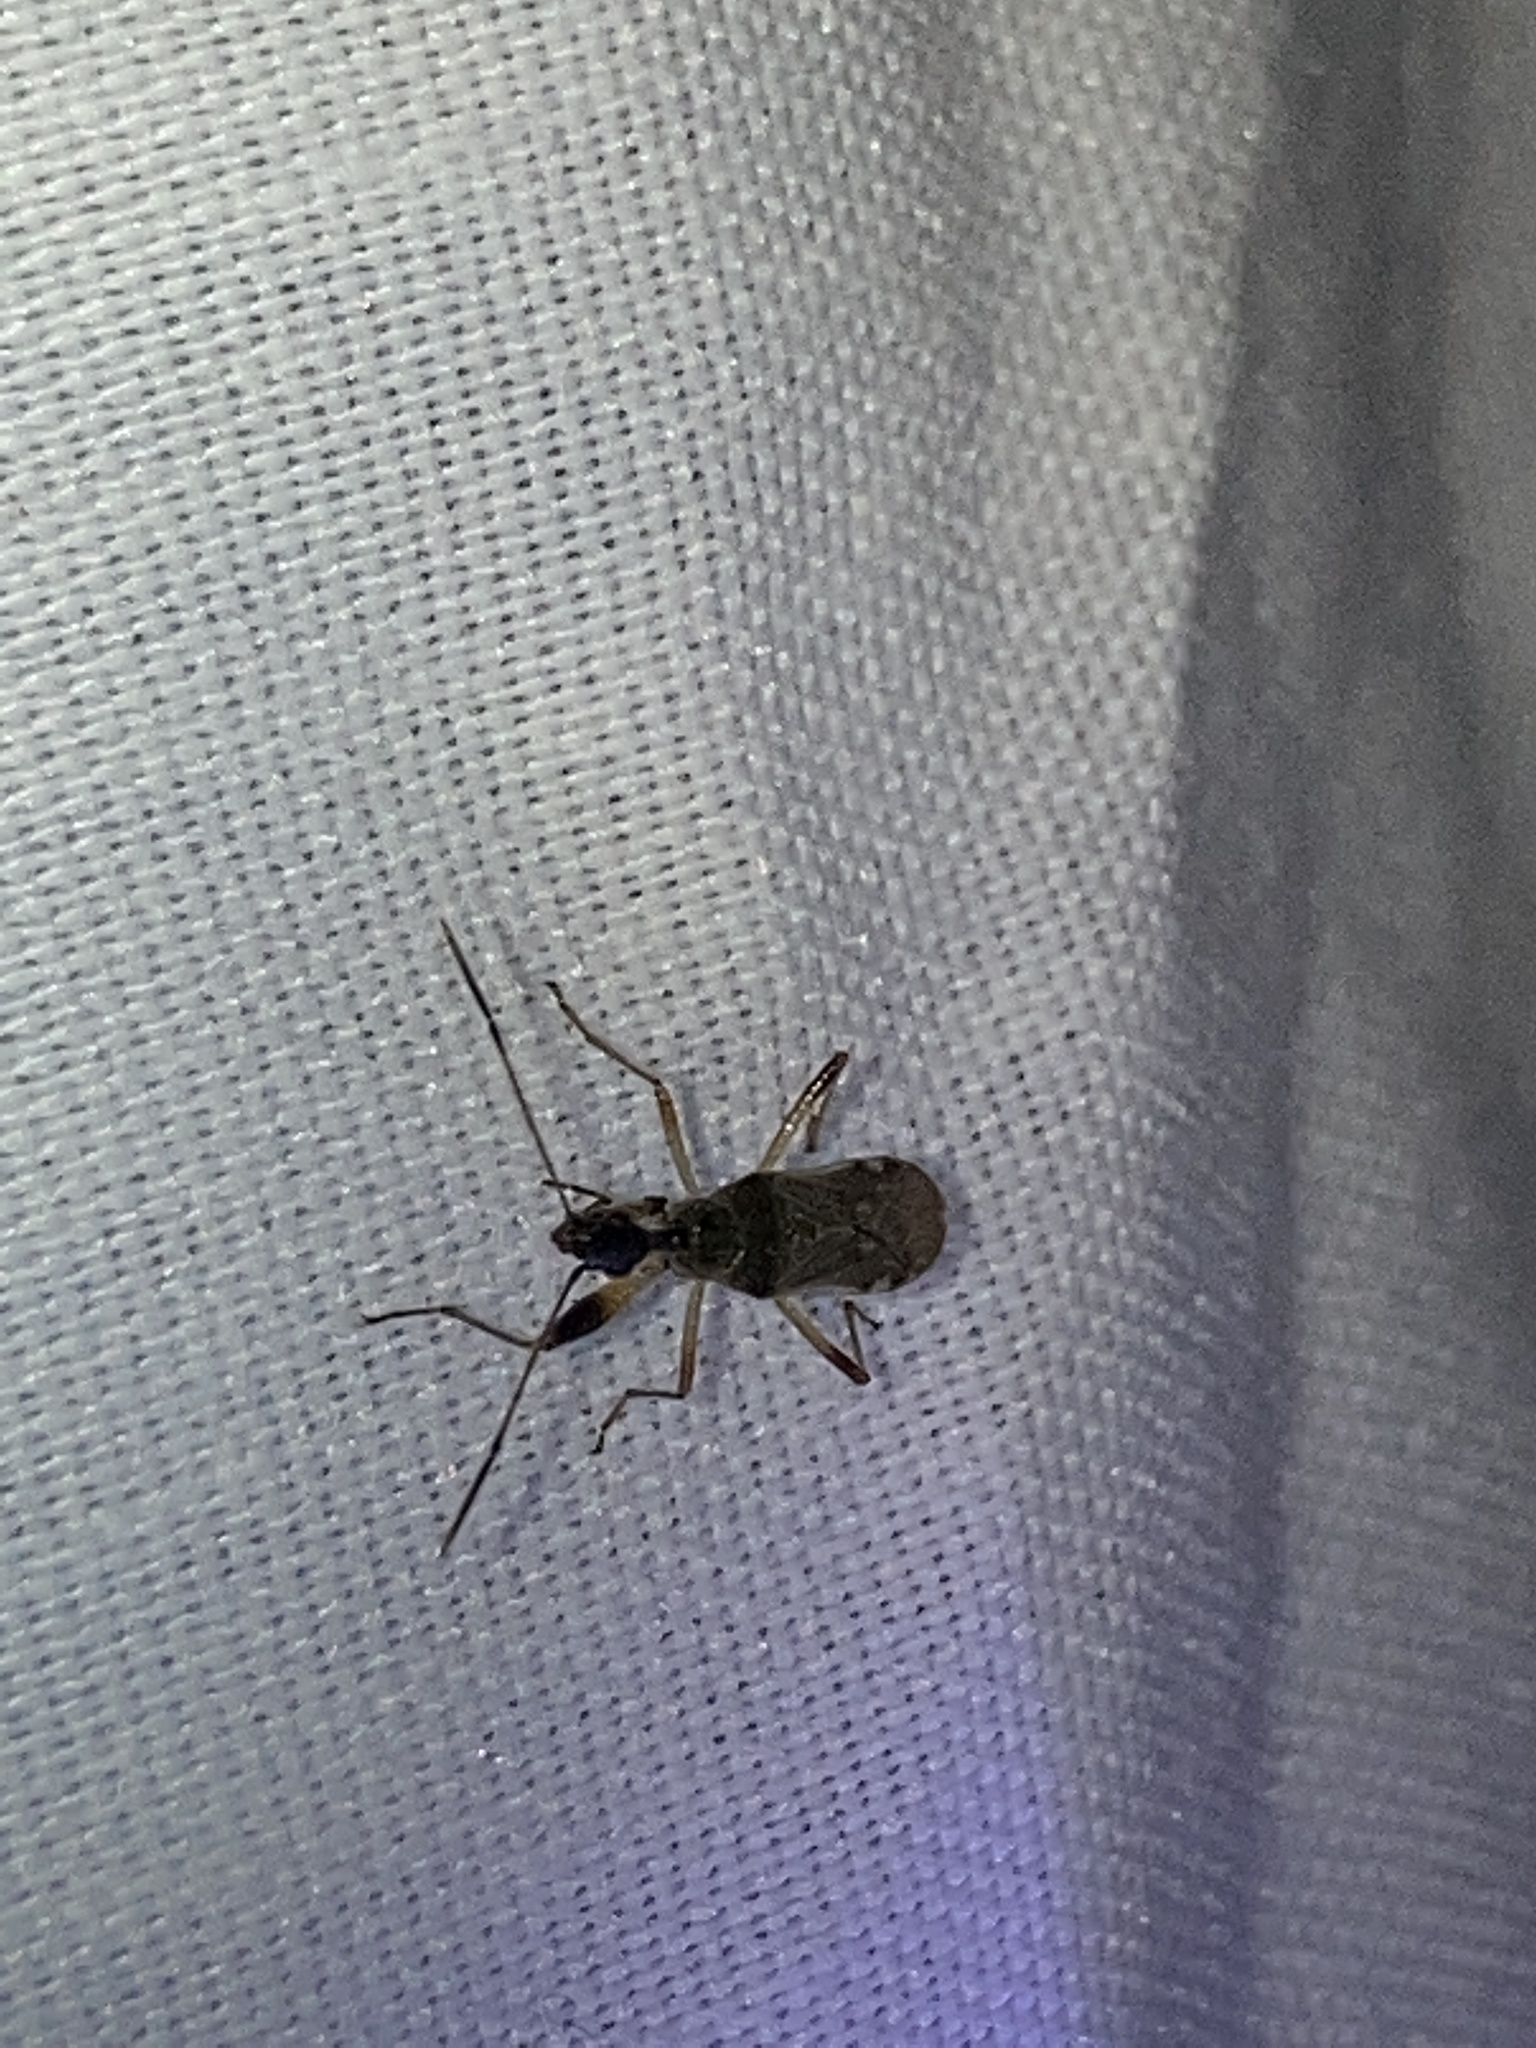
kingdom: Animalia
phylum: Arthropoda
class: Insecta
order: Hemiptera
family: Rhyparochromidae
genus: Myodocha
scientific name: Myodocha serripes
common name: Long-necked seed bug
